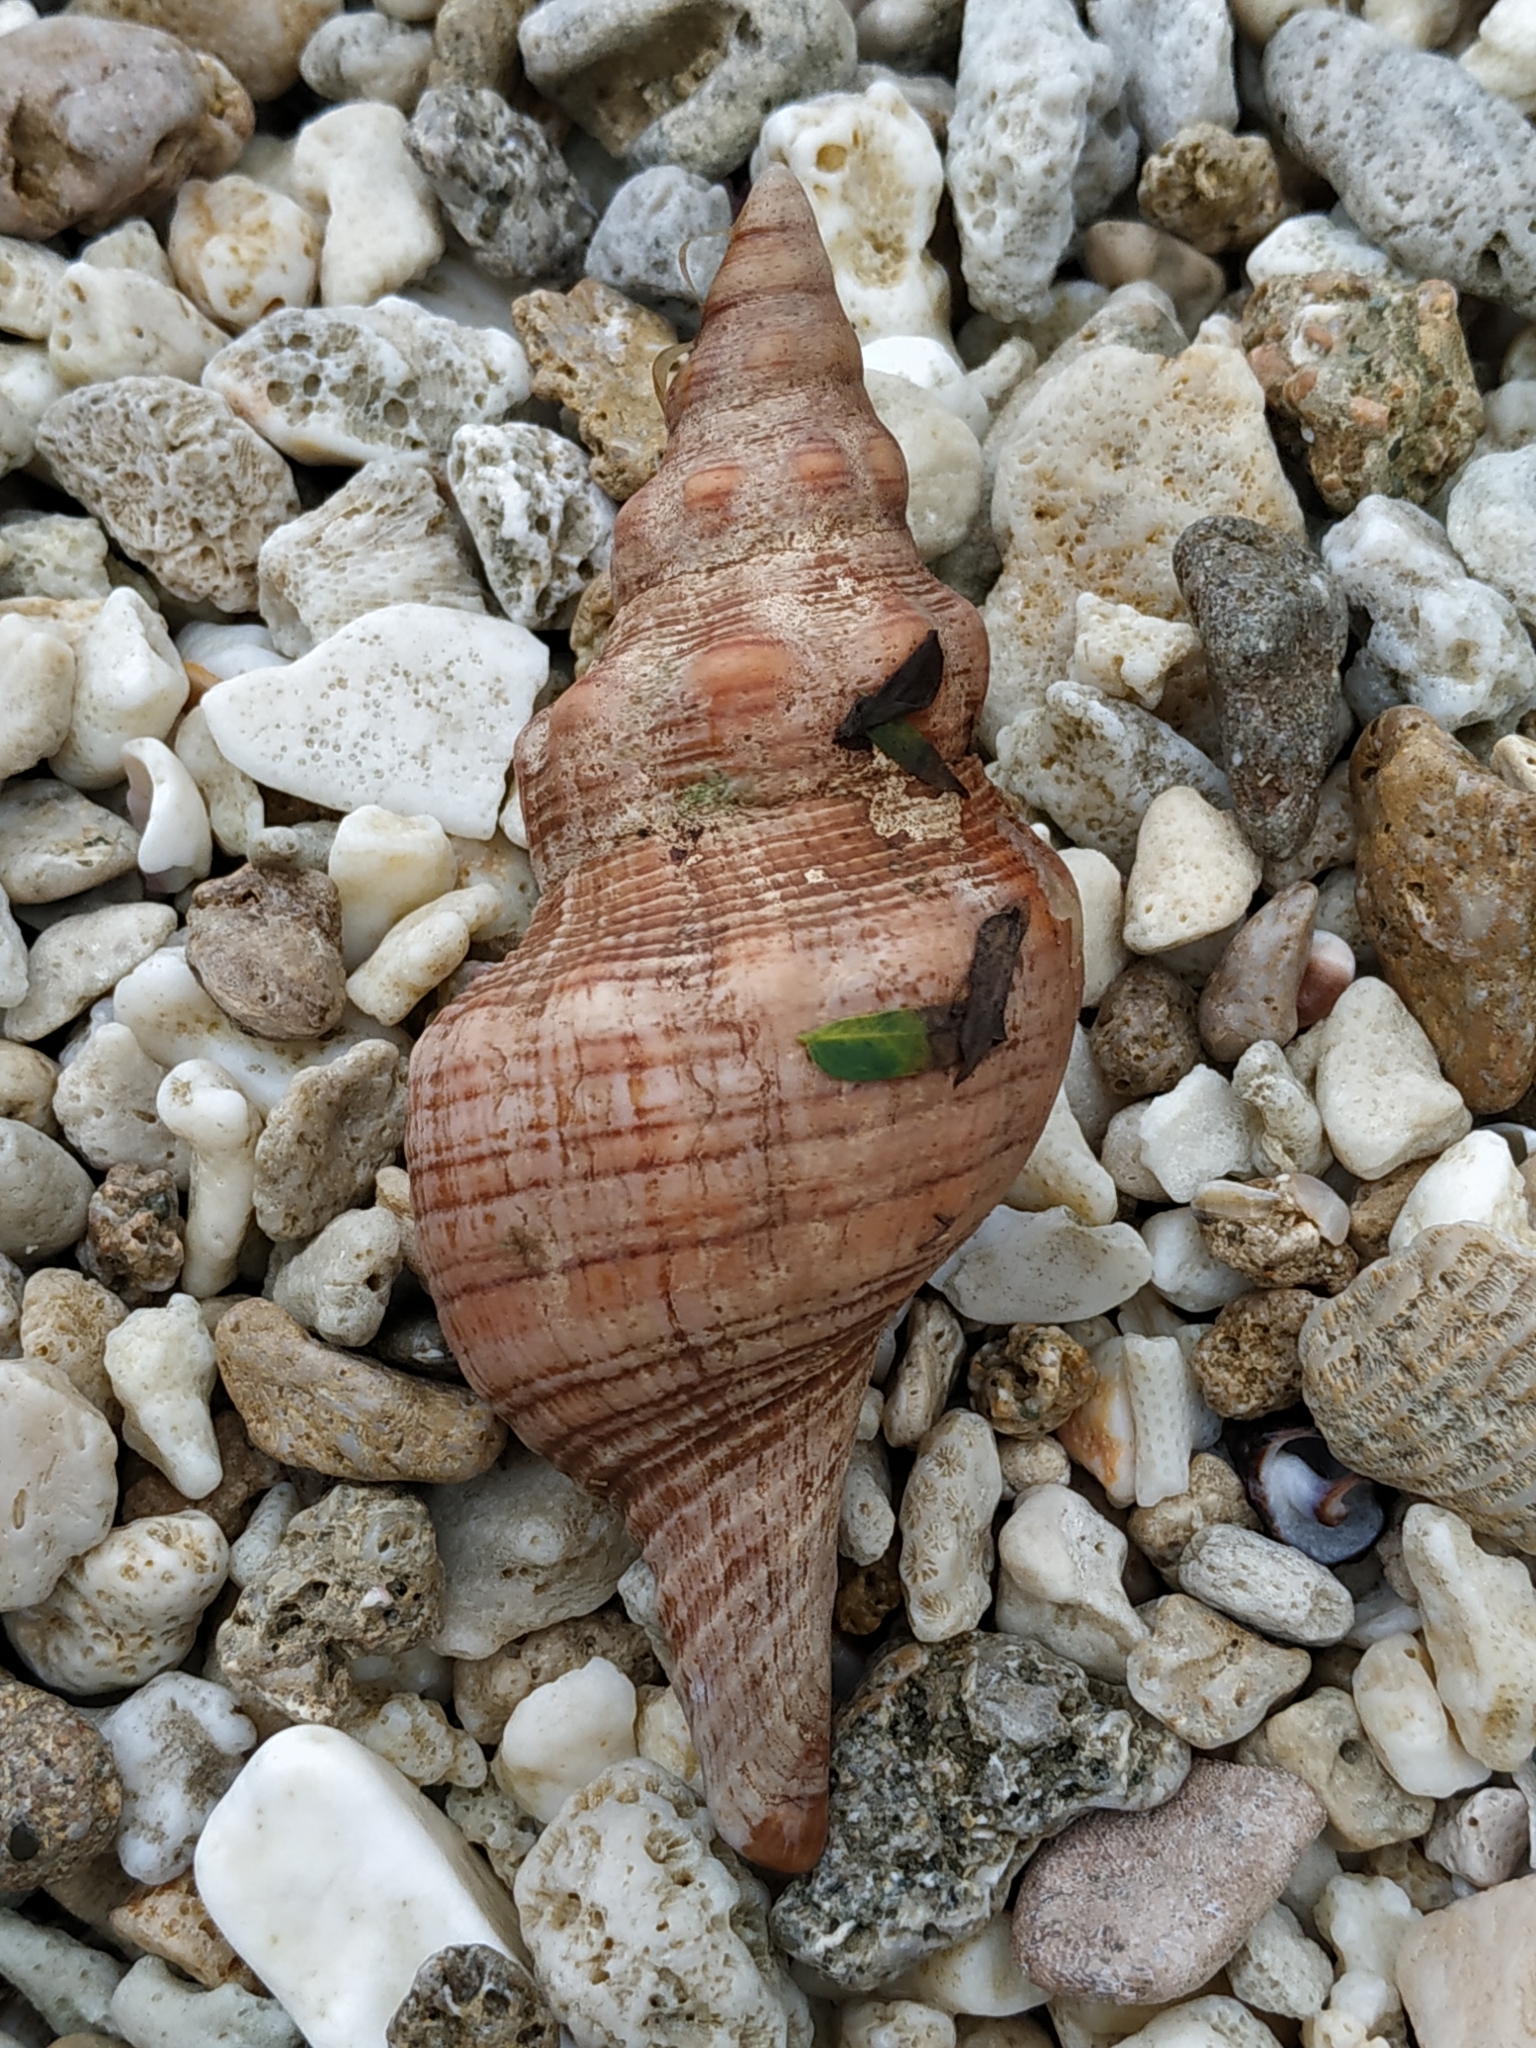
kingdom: Animalia
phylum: Mollusca
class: Gastropoda
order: Neogastropoda
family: Fasciolariidae
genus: Filifusus
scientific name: Filifusus filamentosus
